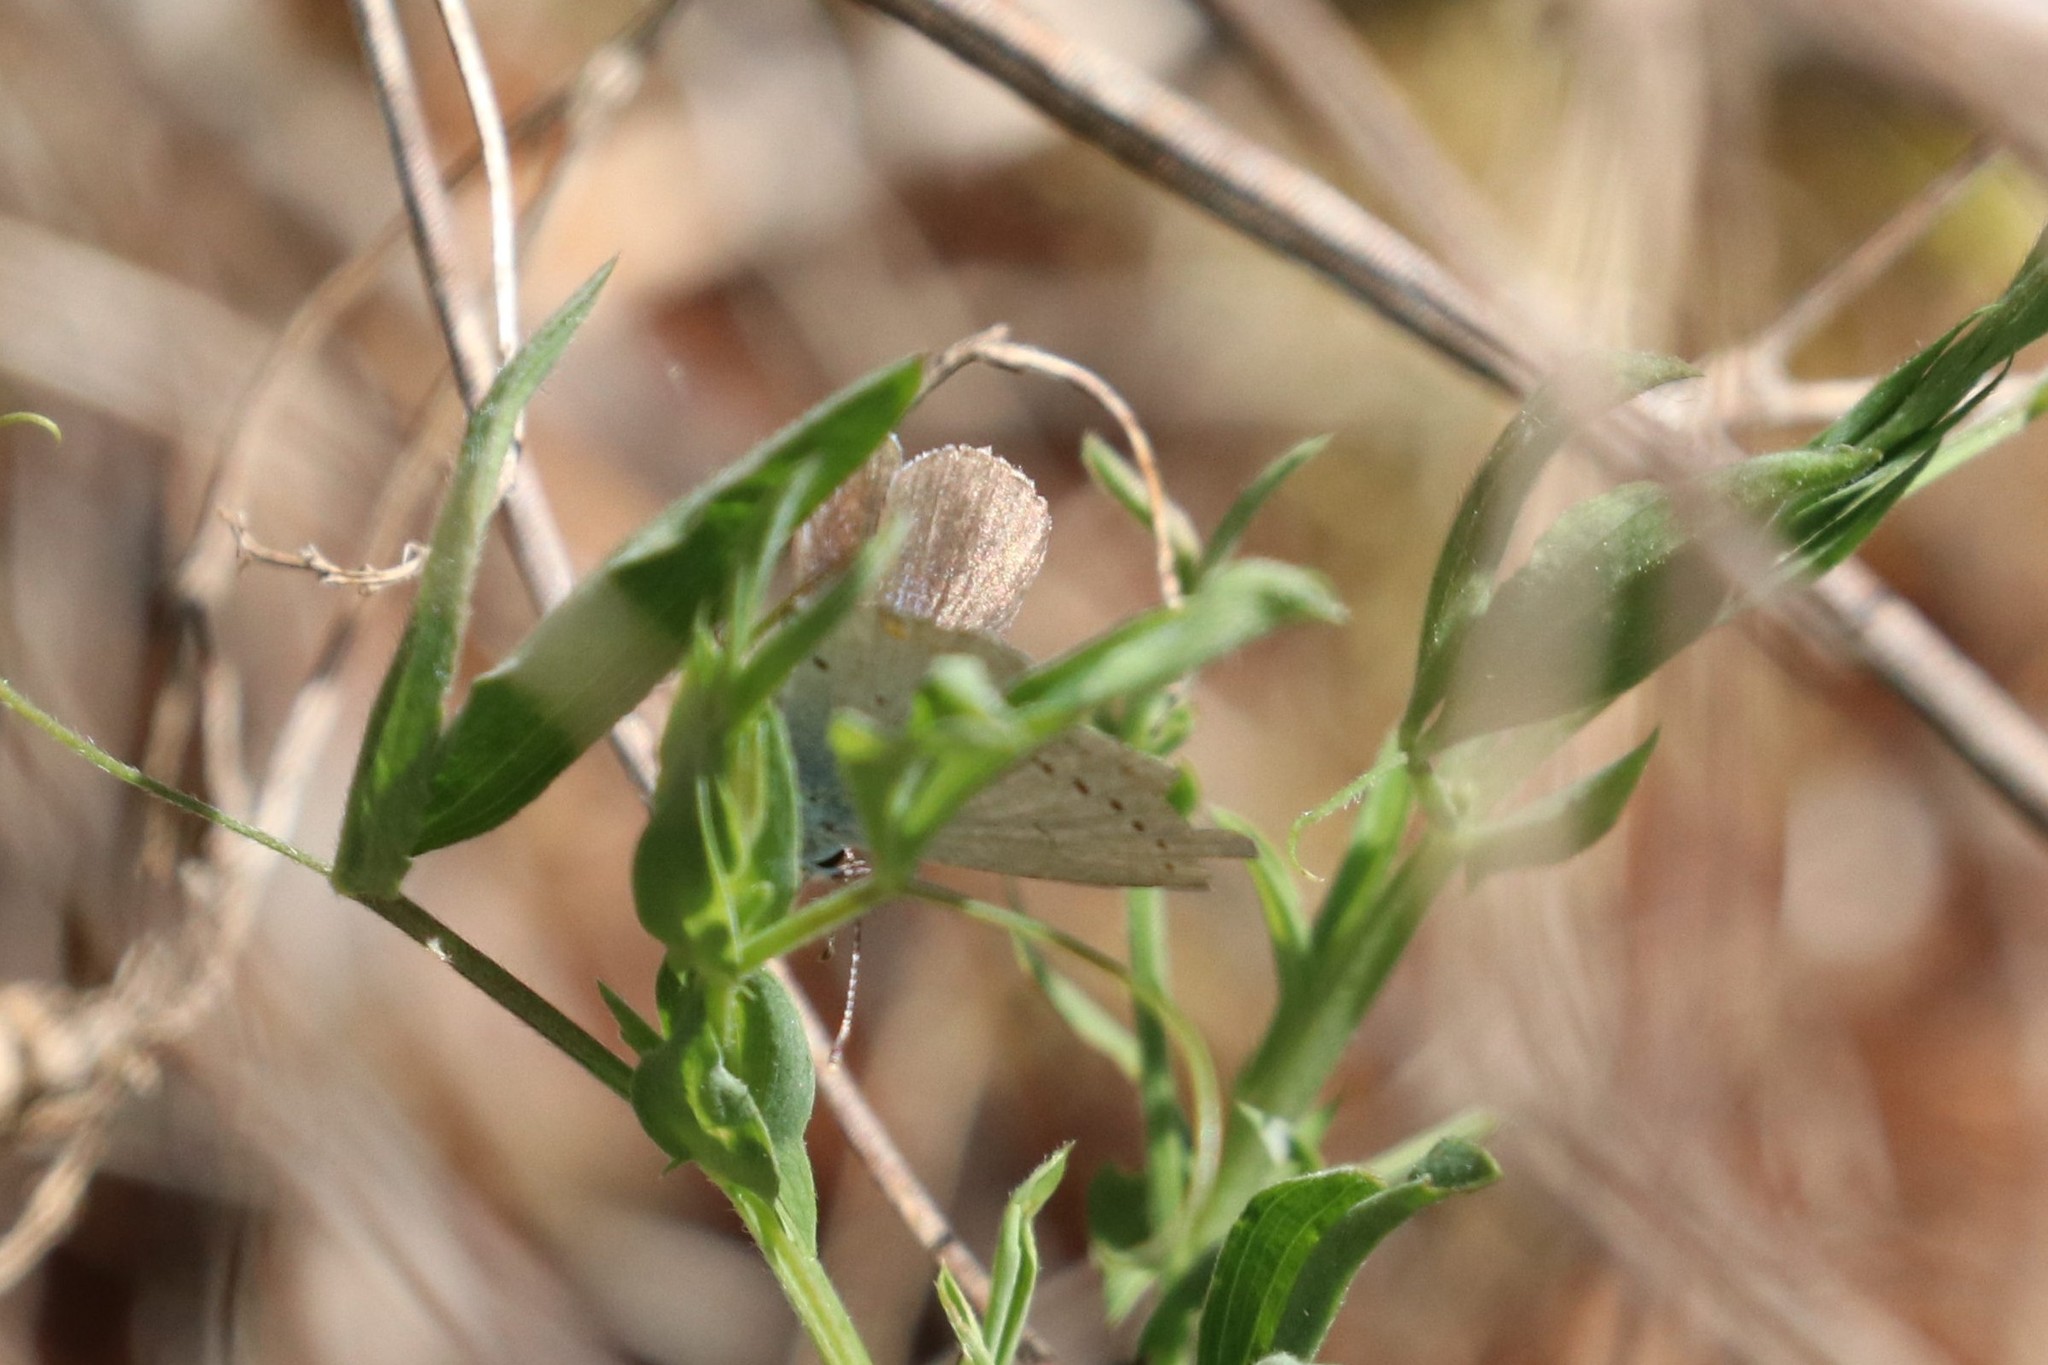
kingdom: Animalia
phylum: Arthropoda
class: Insecta
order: Lepidoptera
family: Lycaenidae
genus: Elkalyce
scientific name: Elkalyce argiades
